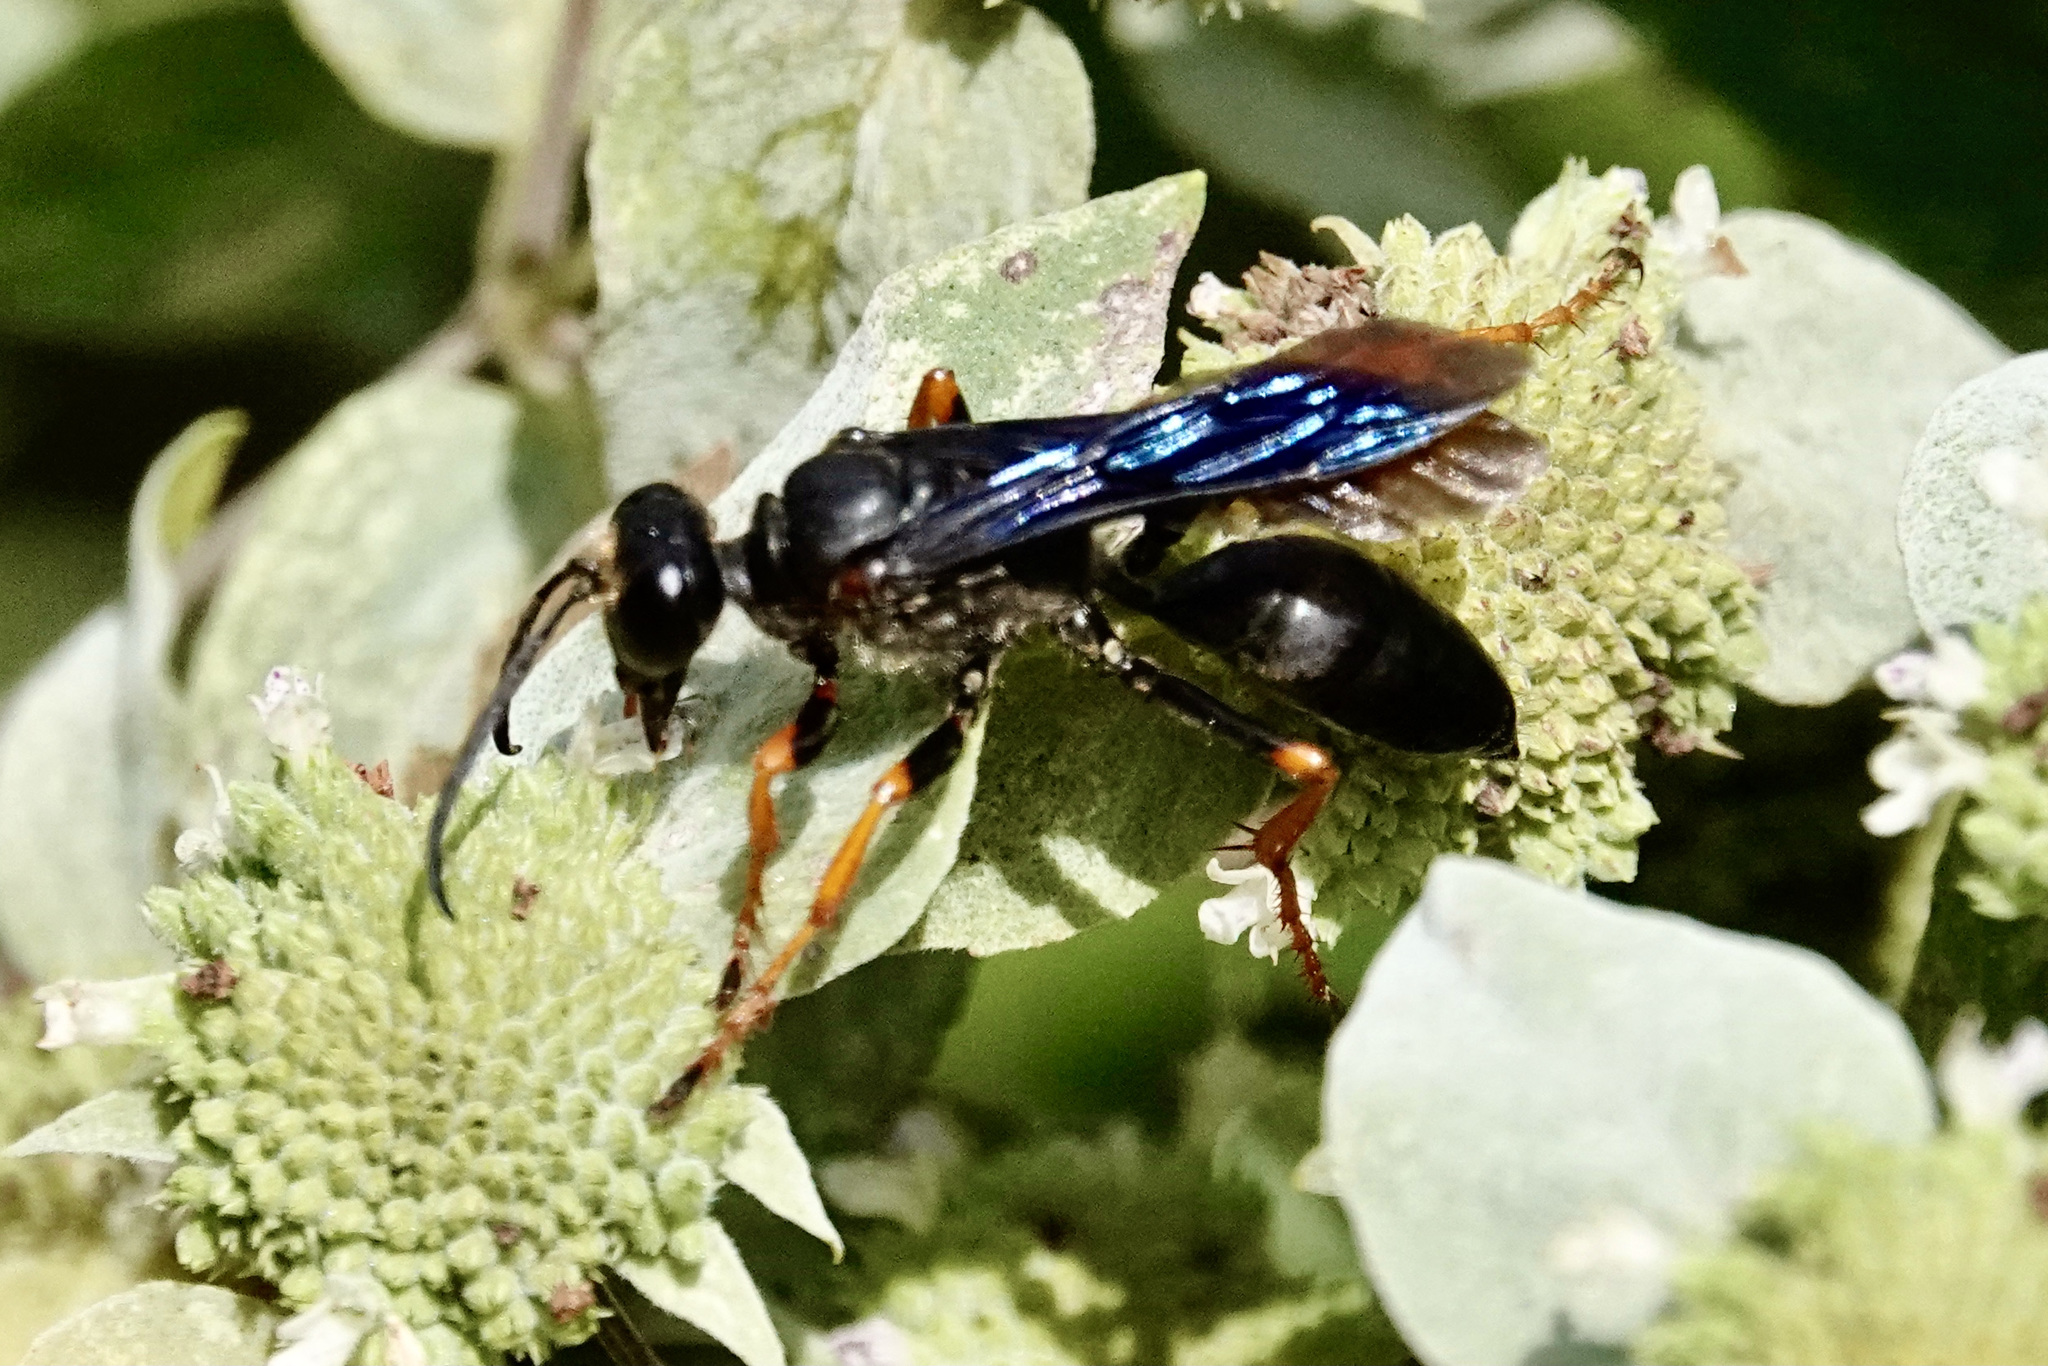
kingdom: Animalia
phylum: Arthropoda
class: Insecta
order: Hymenoptera
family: Sphecidae
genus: Sphex
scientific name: Sphex nudus
